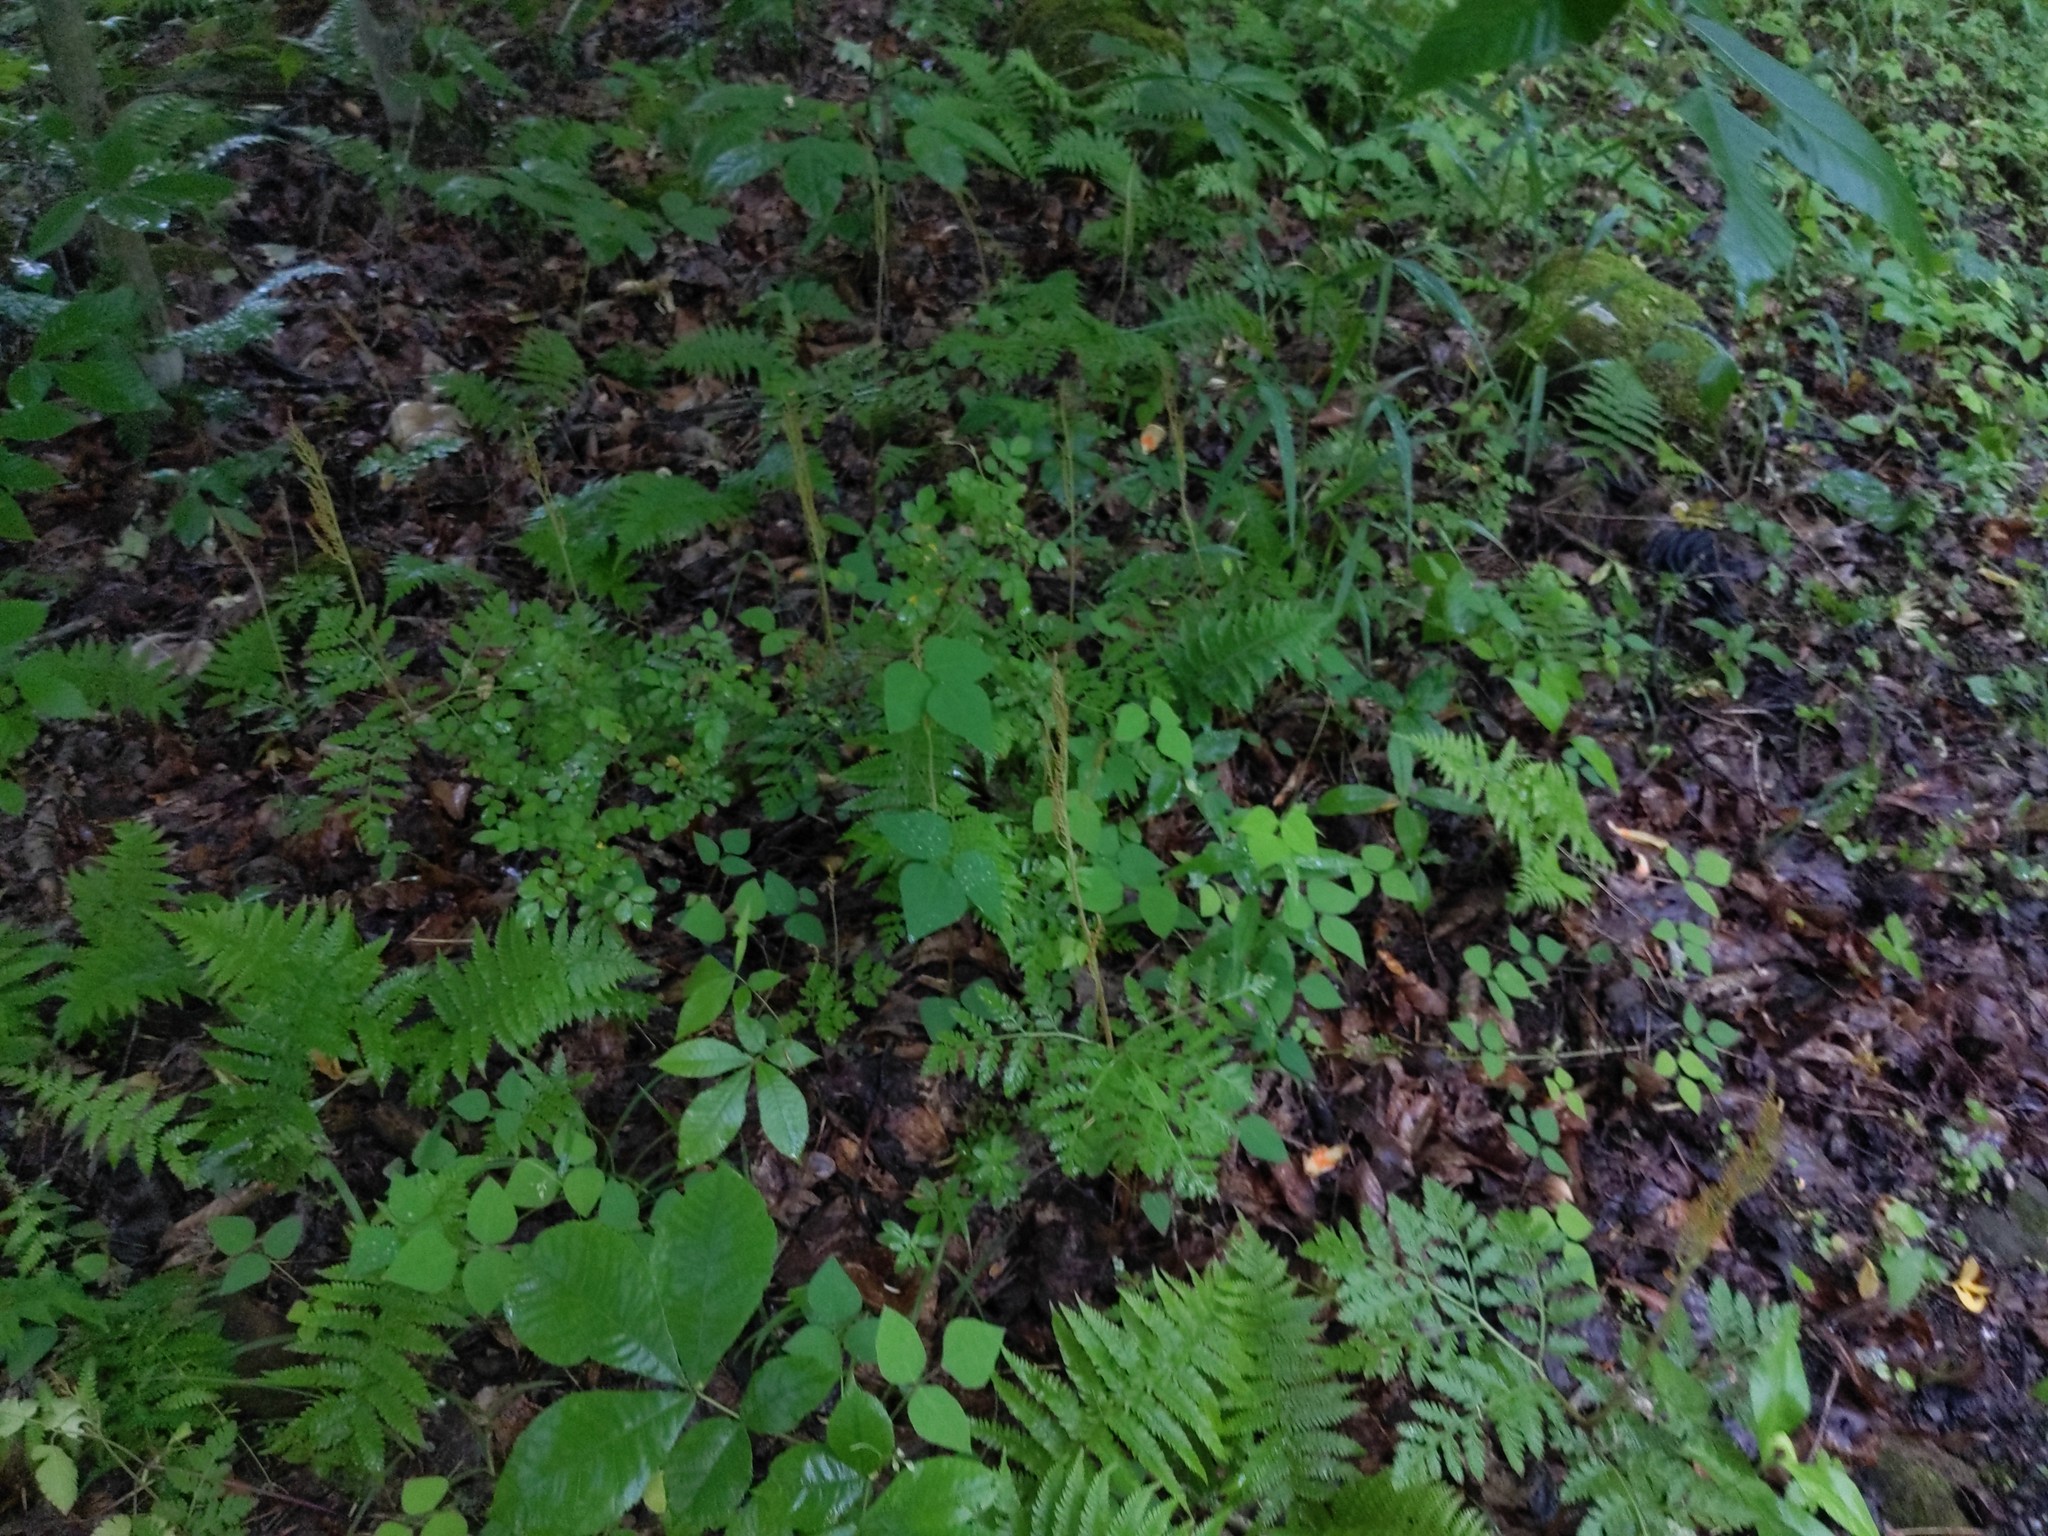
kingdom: Plantae
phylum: Tracheophyta
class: Polypodiopsida
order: Ophioglossales
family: Ophioglossaceae
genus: Botrypus
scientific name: Botrypus virginianus
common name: Common grapefern
